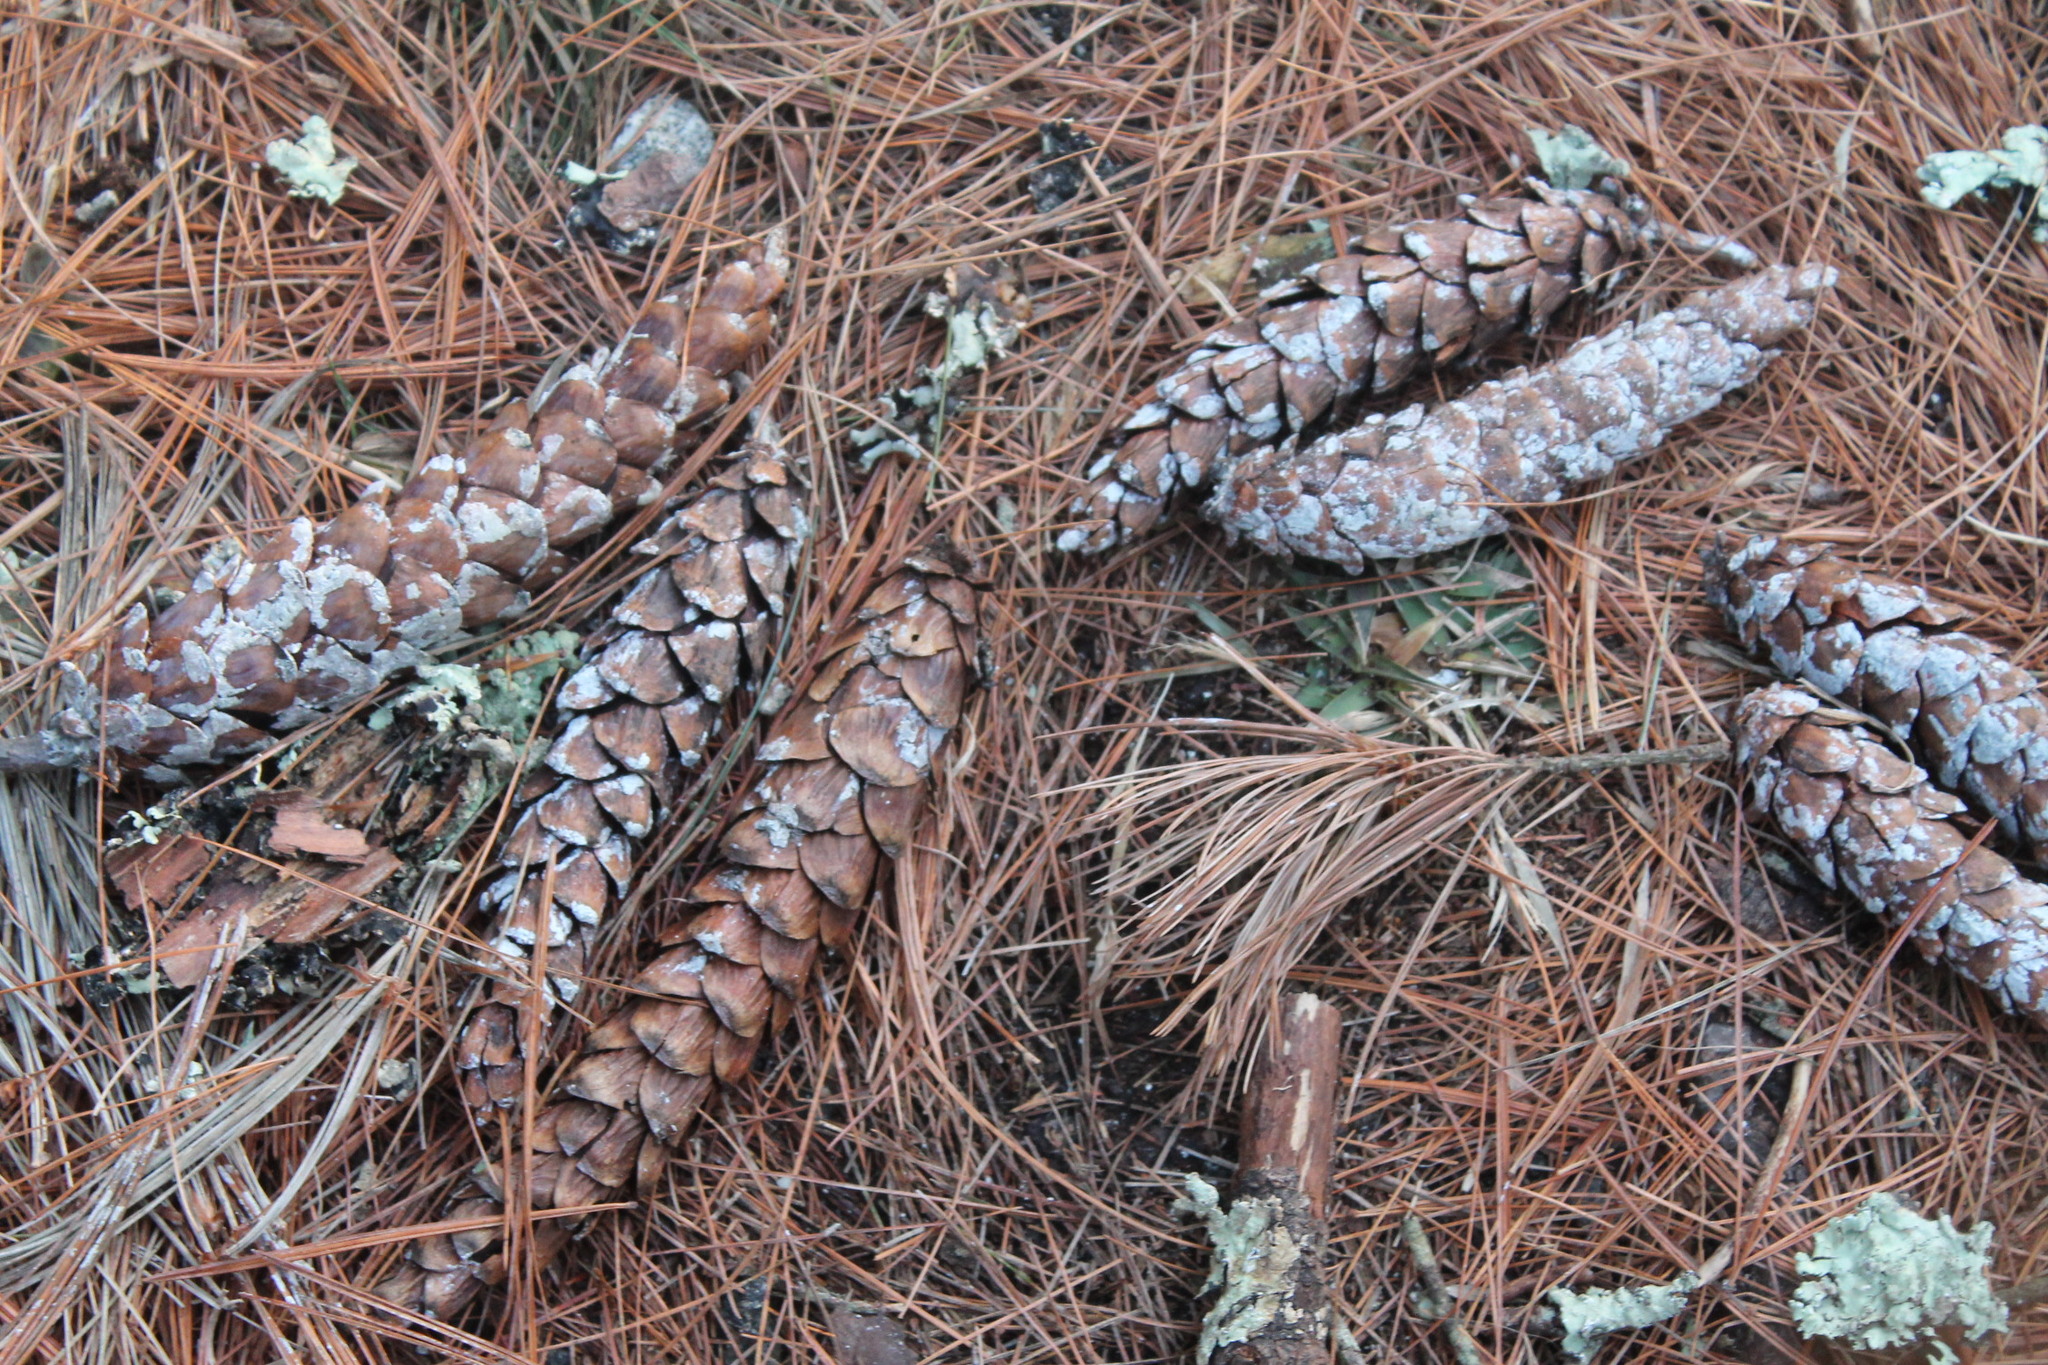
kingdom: Plantae
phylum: Tracheophyta
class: Pinopsida
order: Pinales
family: Pinaceae
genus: Pinus
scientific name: Pinus strobus
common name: Weymouth pine
